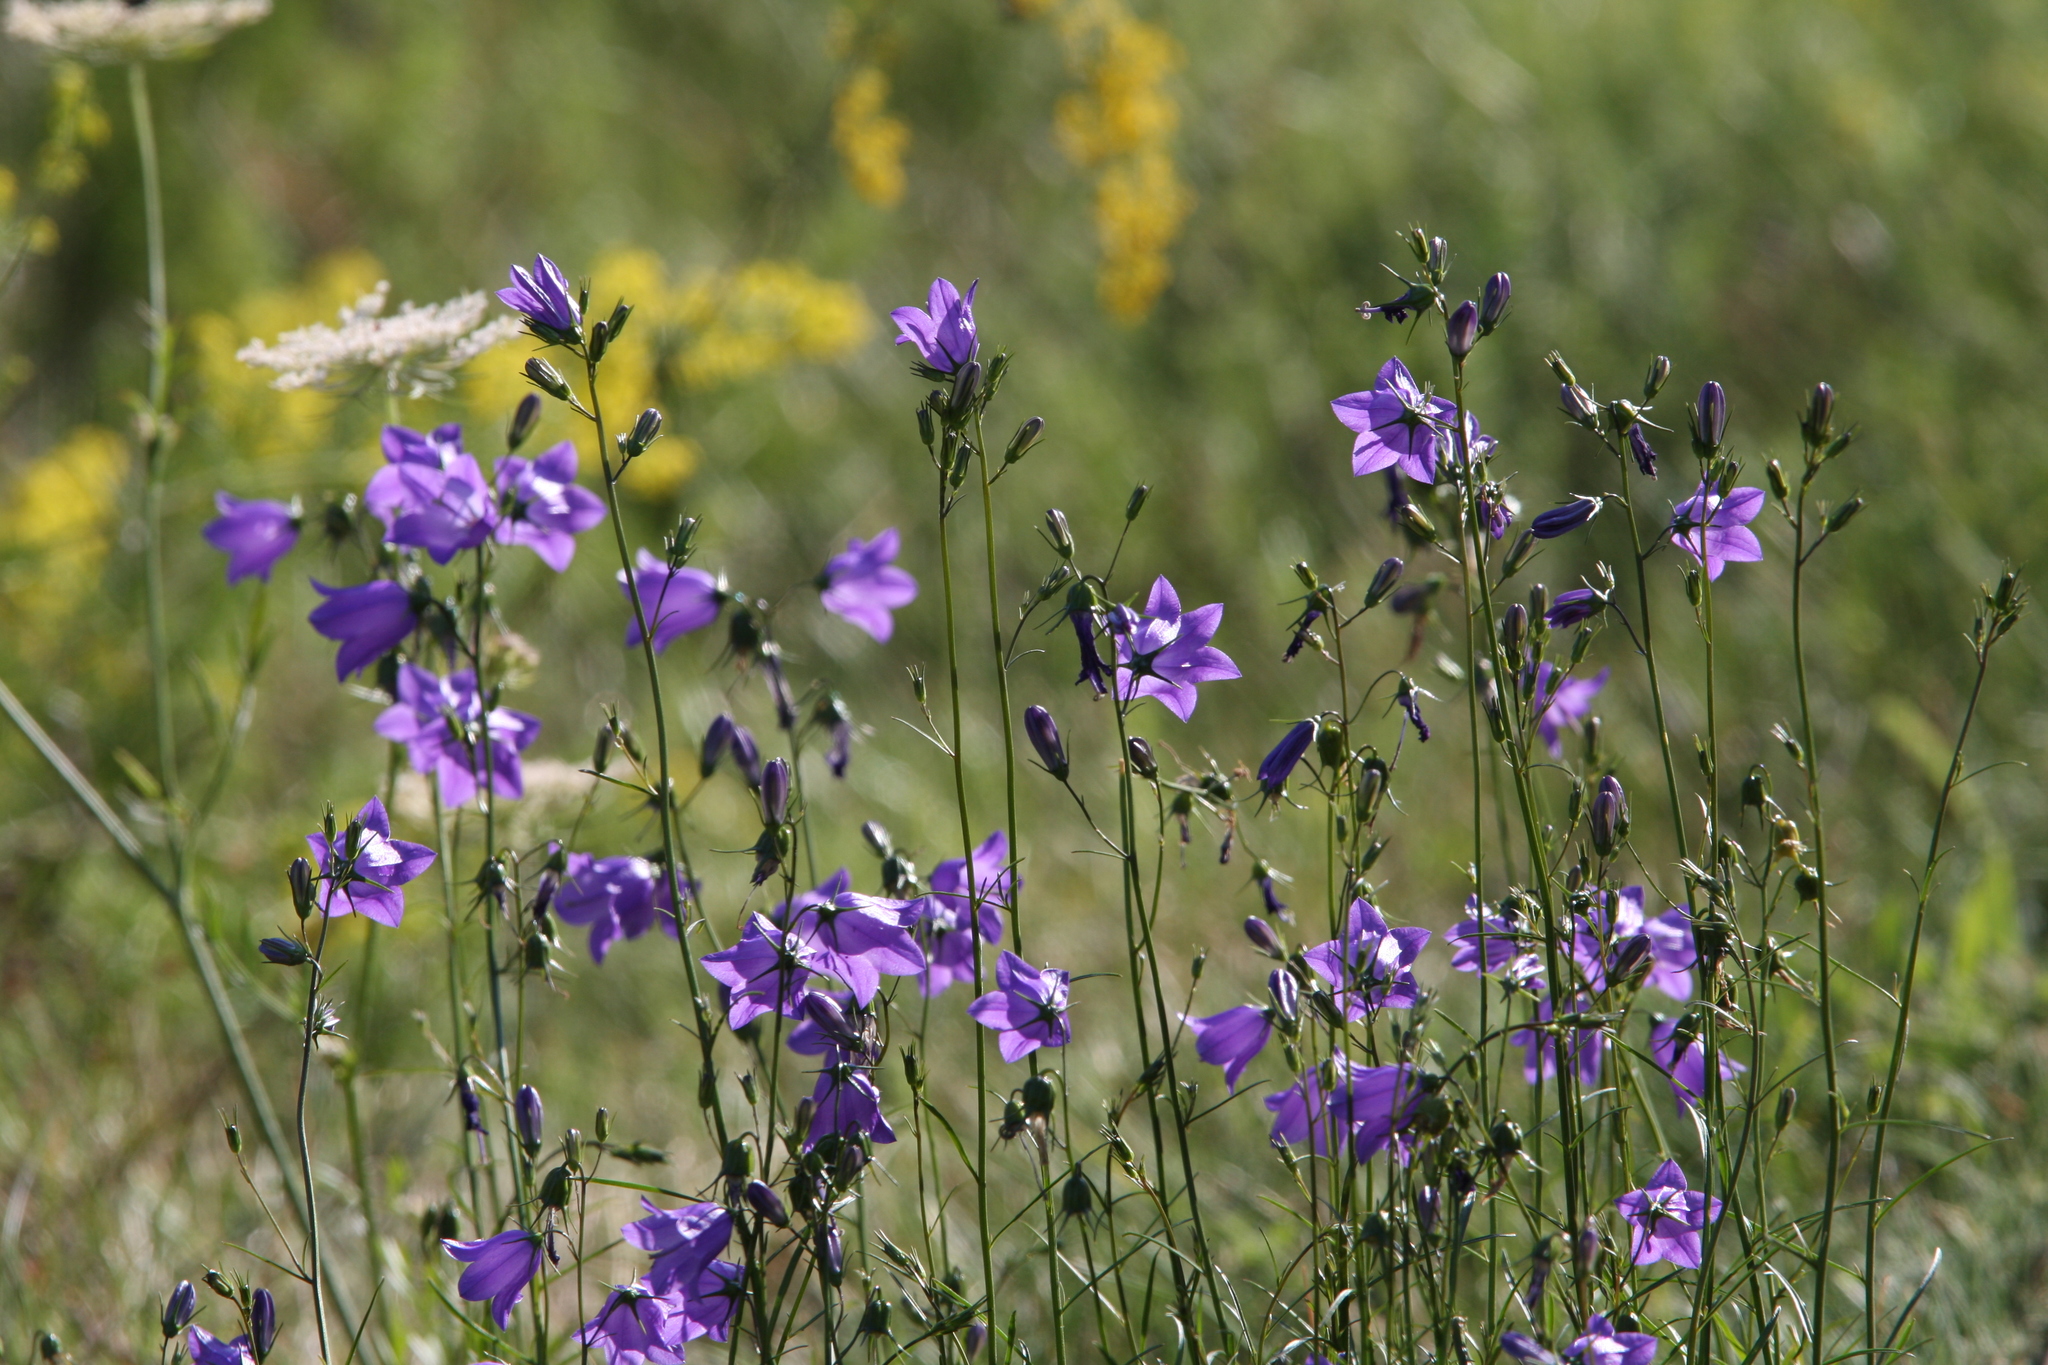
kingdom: Plantae
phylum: Tracheophyta
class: Magnoliopsida
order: Asterales
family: Campanulaceae
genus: Campanula
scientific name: Campanula rotundifolia
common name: Harebell
